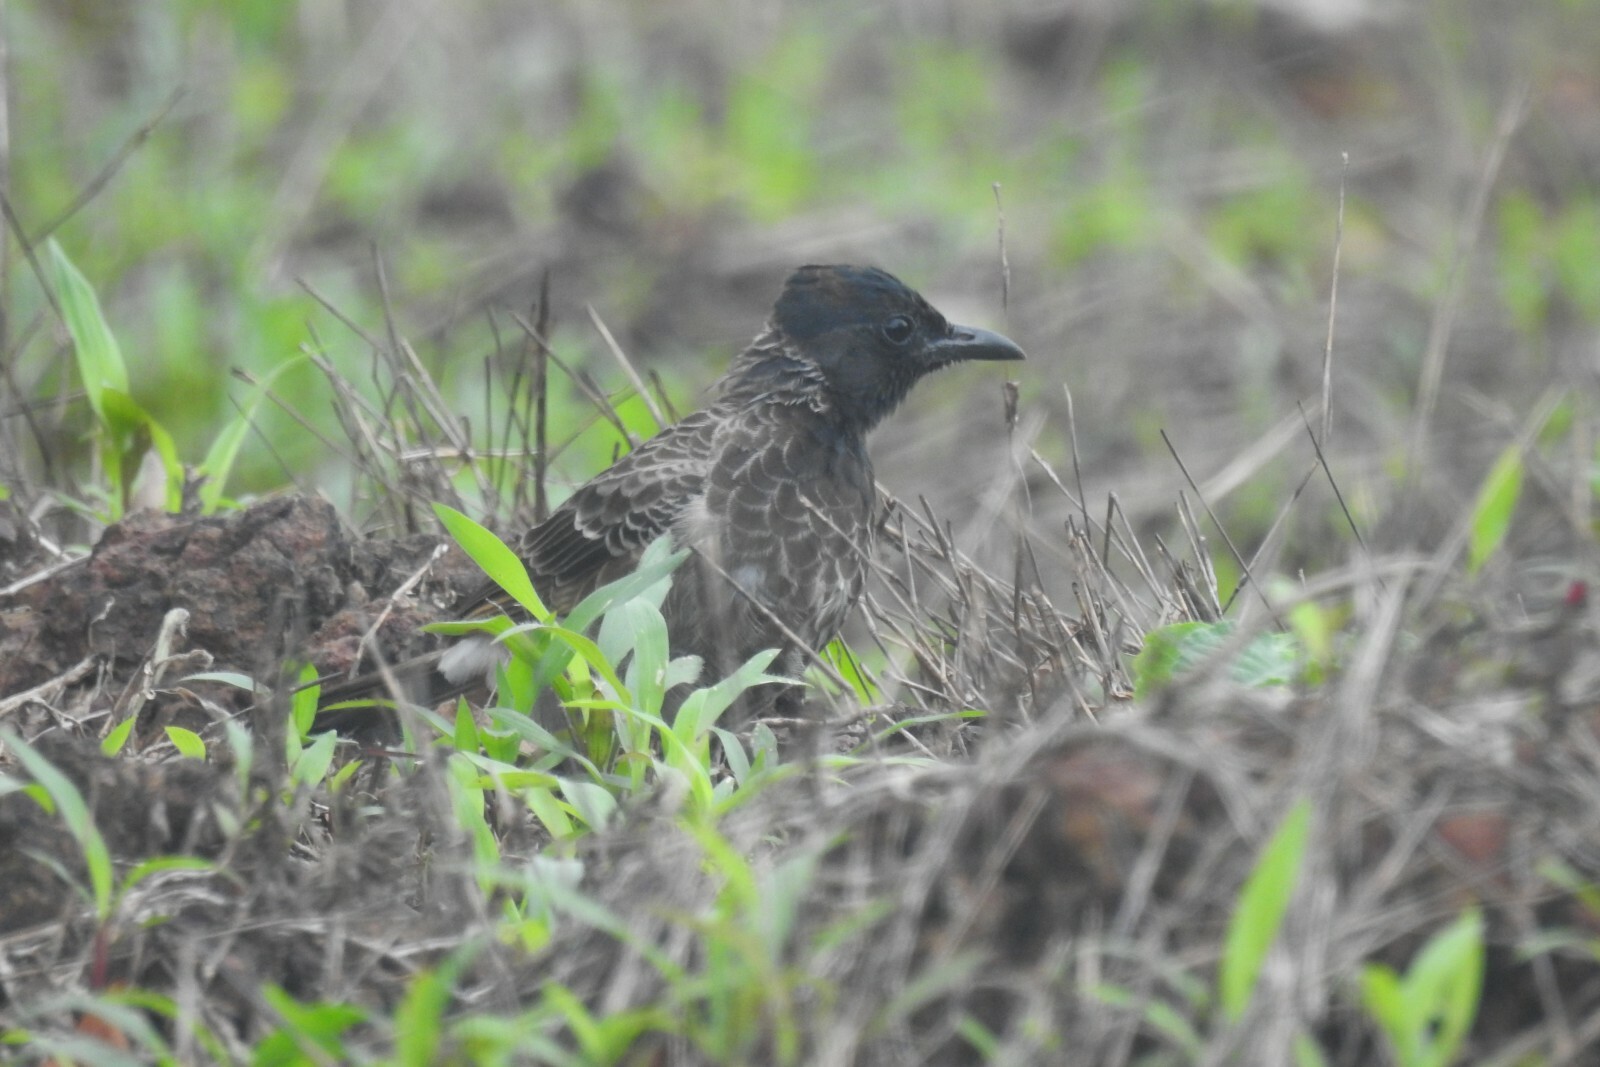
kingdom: Animalia
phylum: Chordata
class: Aves
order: Passeriformes
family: Pycnonotidae
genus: Pycnonotus
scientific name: Pycnonotus cafer
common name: Red-vented bulbul
